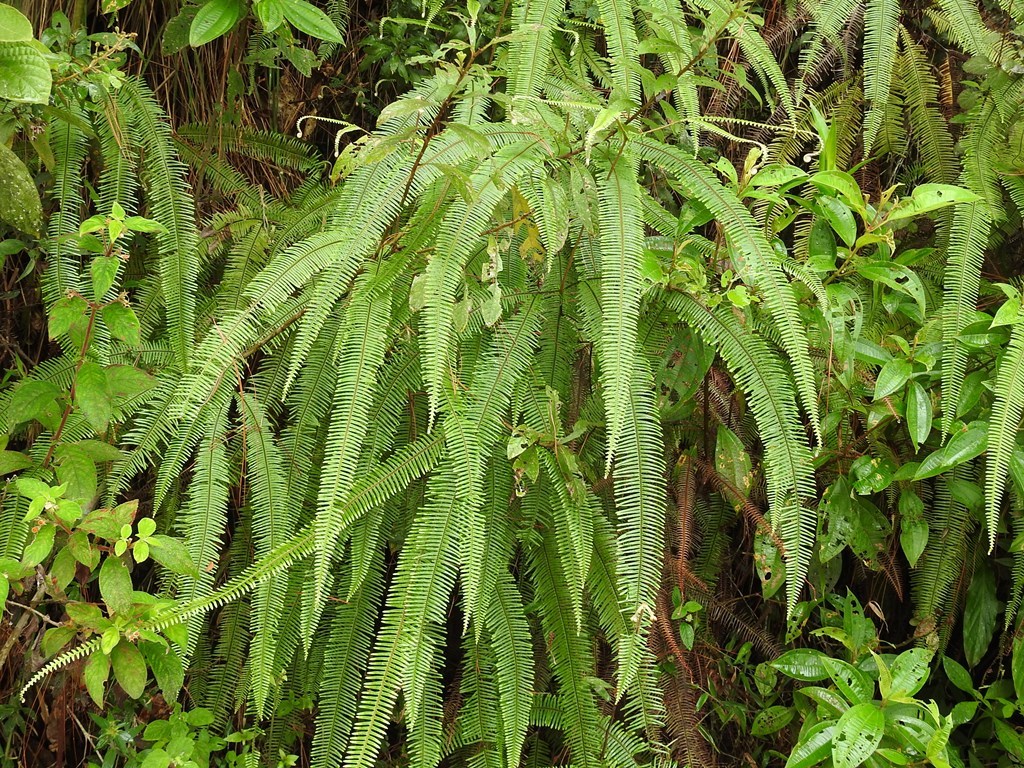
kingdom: Plantae
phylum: Tracheophyta
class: Polypodiopsida
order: Gleicheniales
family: Gleicheniaceae
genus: Sticherus
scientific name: Sticherus fulvus
